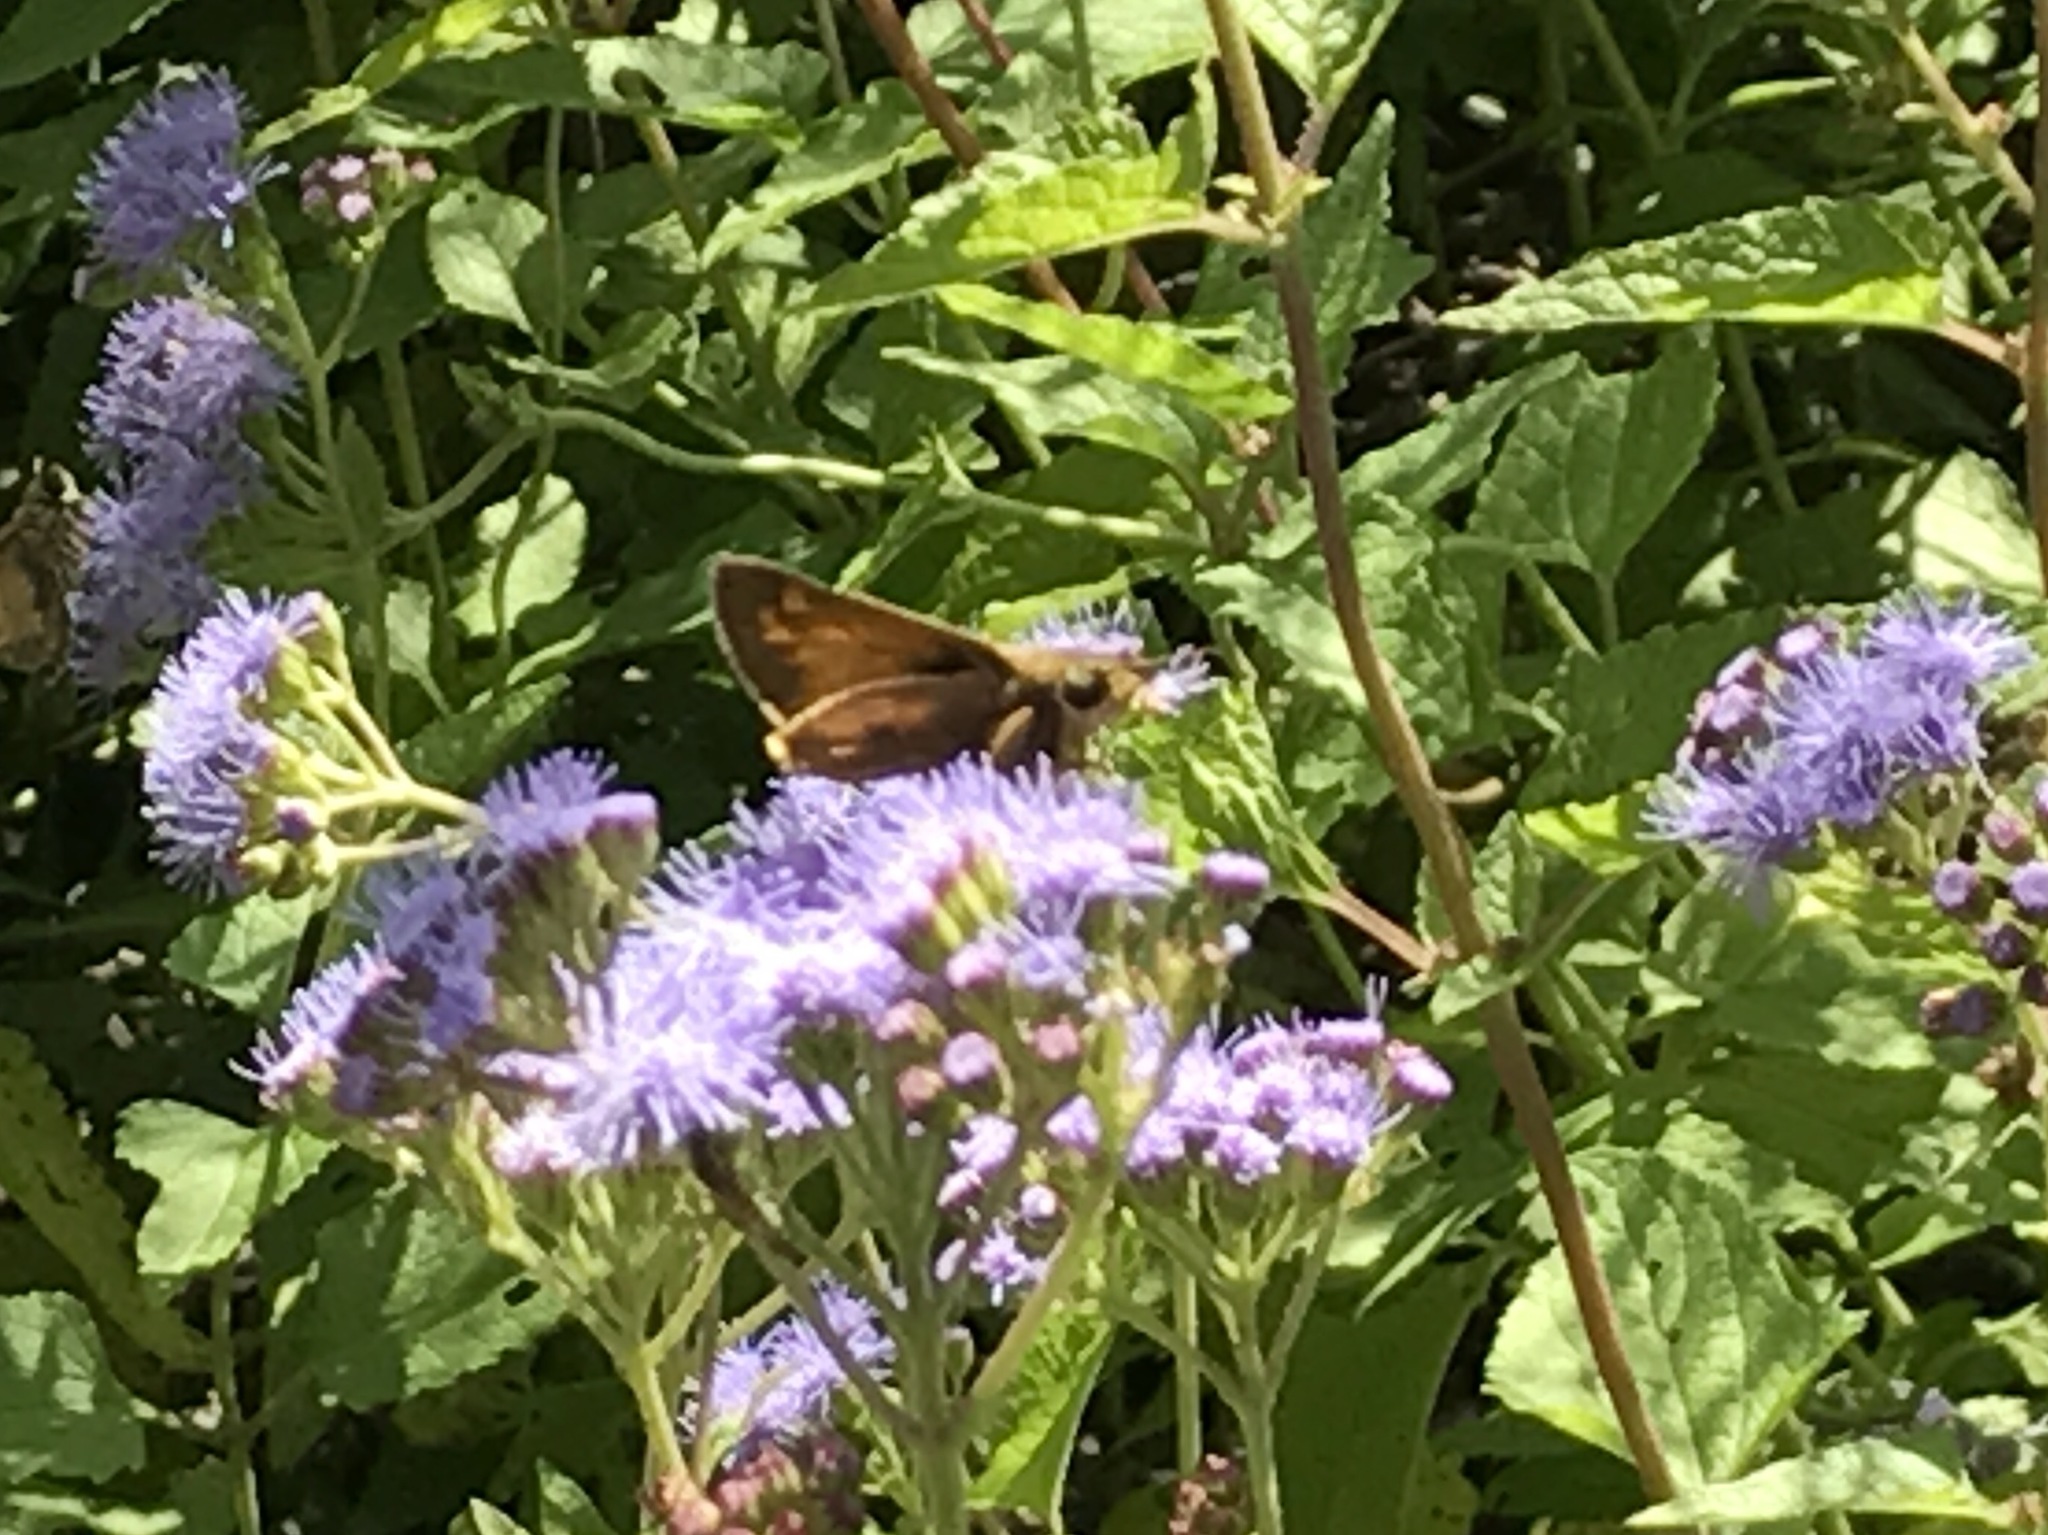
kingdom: Animalia
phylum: Arthropoda
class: Insecta
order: Lepidoptera
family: Hesperiidae
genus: Atalopedes
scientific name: Atalopedes
